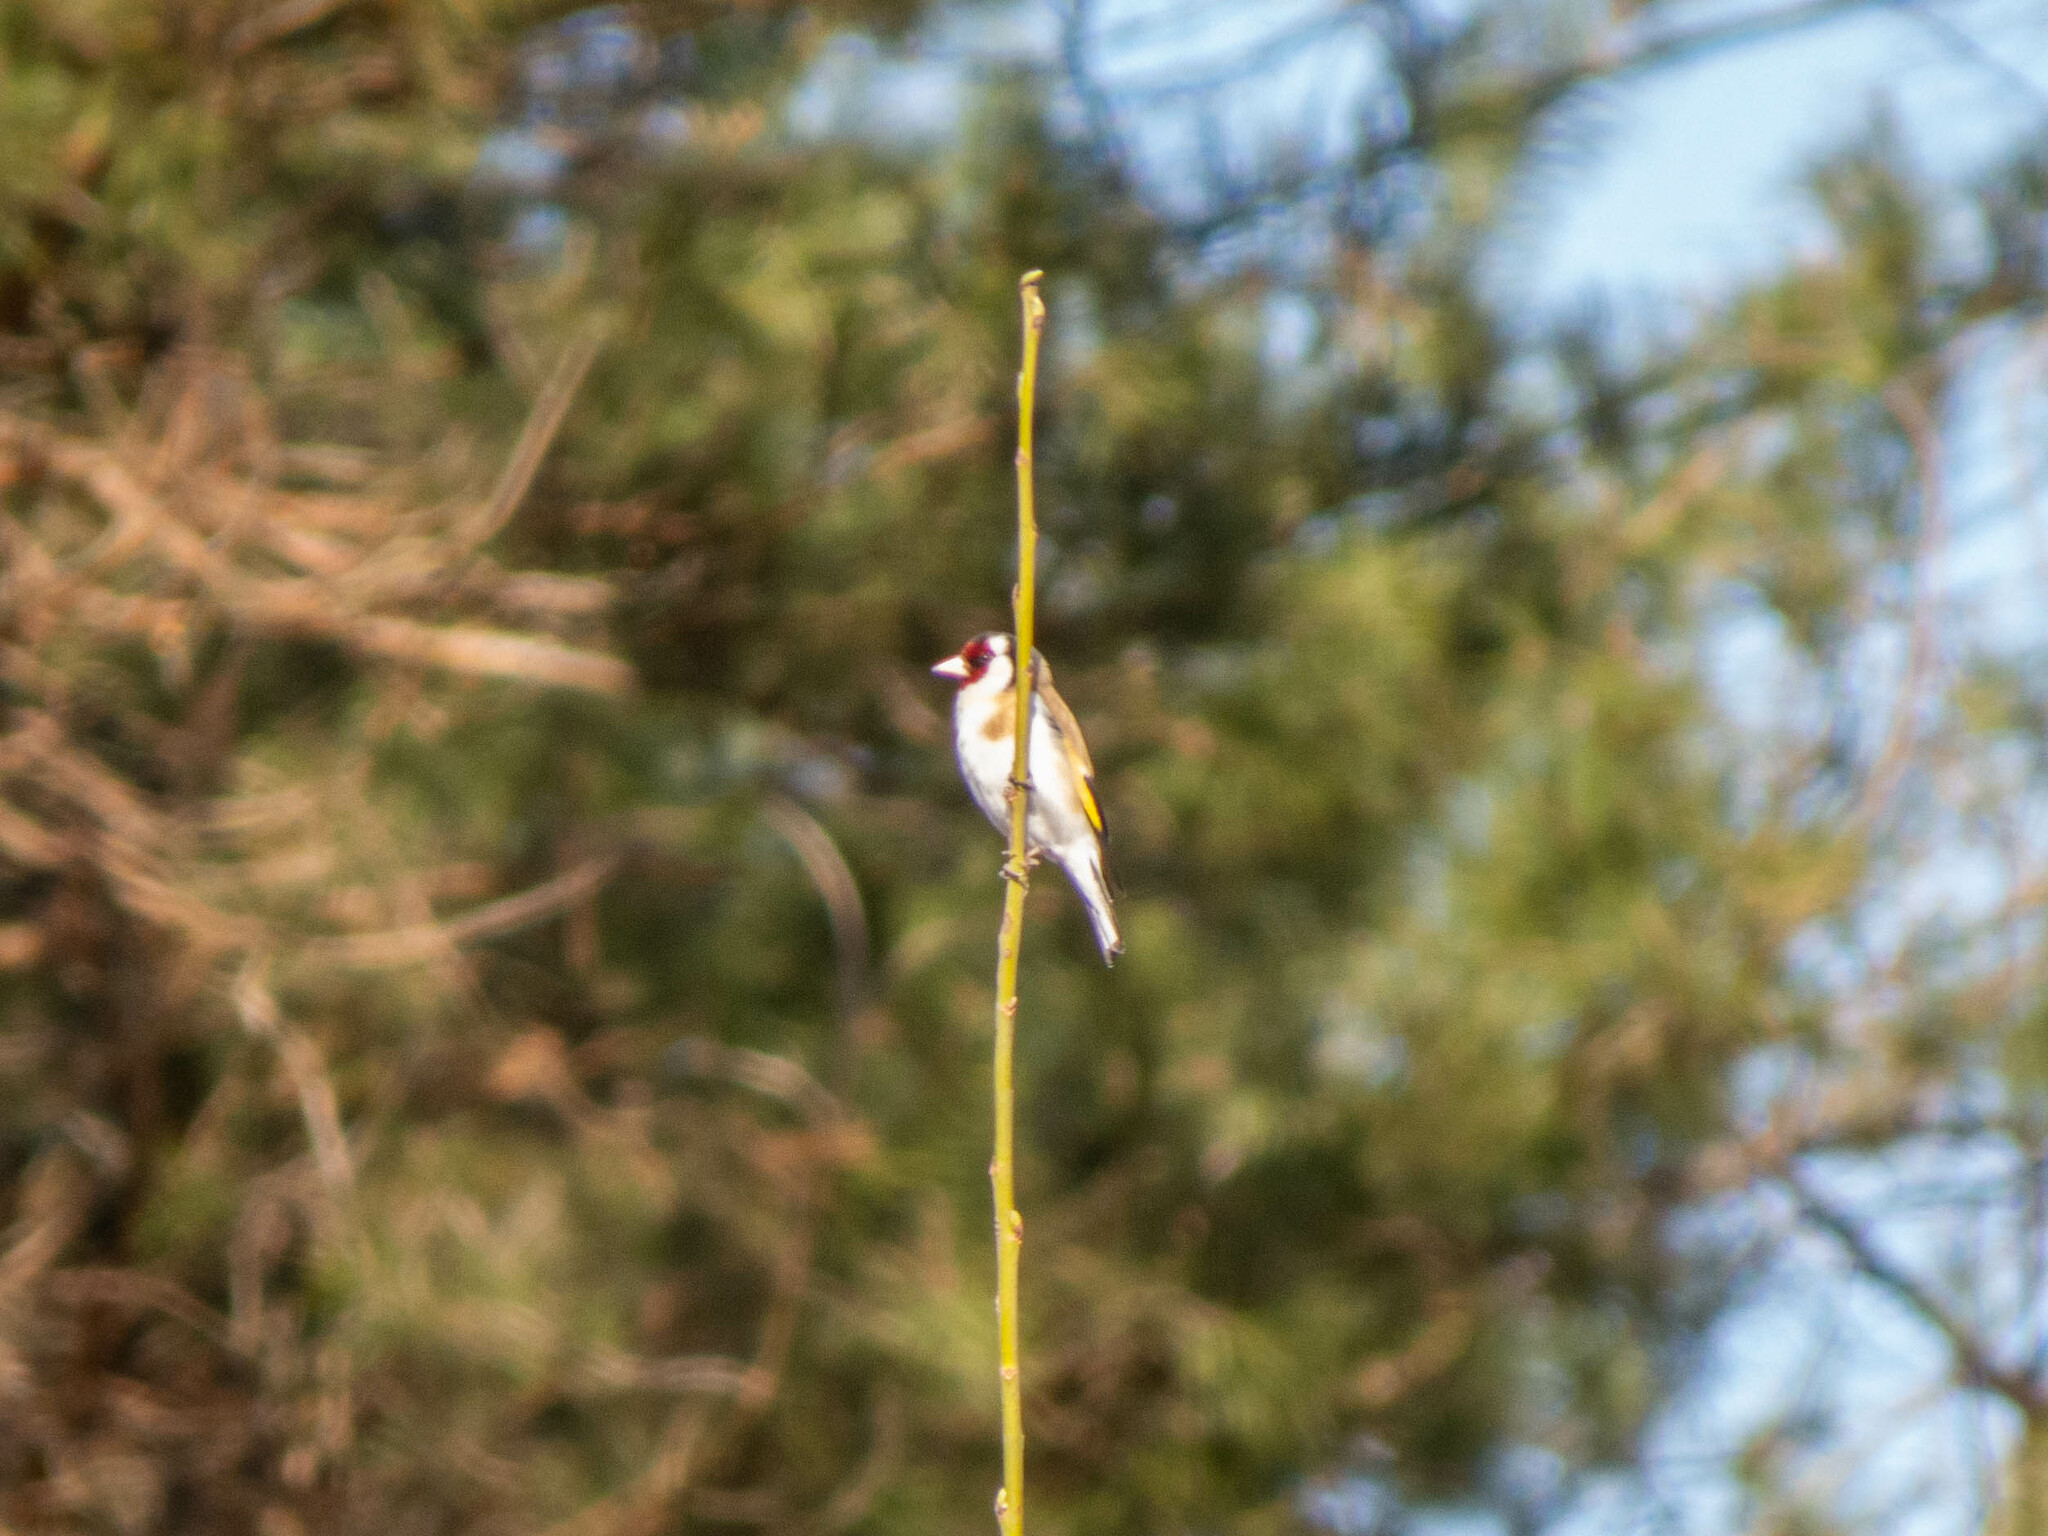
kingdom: Animalia
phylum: Chordata
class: Aves
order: Passeriformes
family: Fringillidae
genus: Carduelis
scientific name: Carduelis carduelis
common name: European goldfinch
